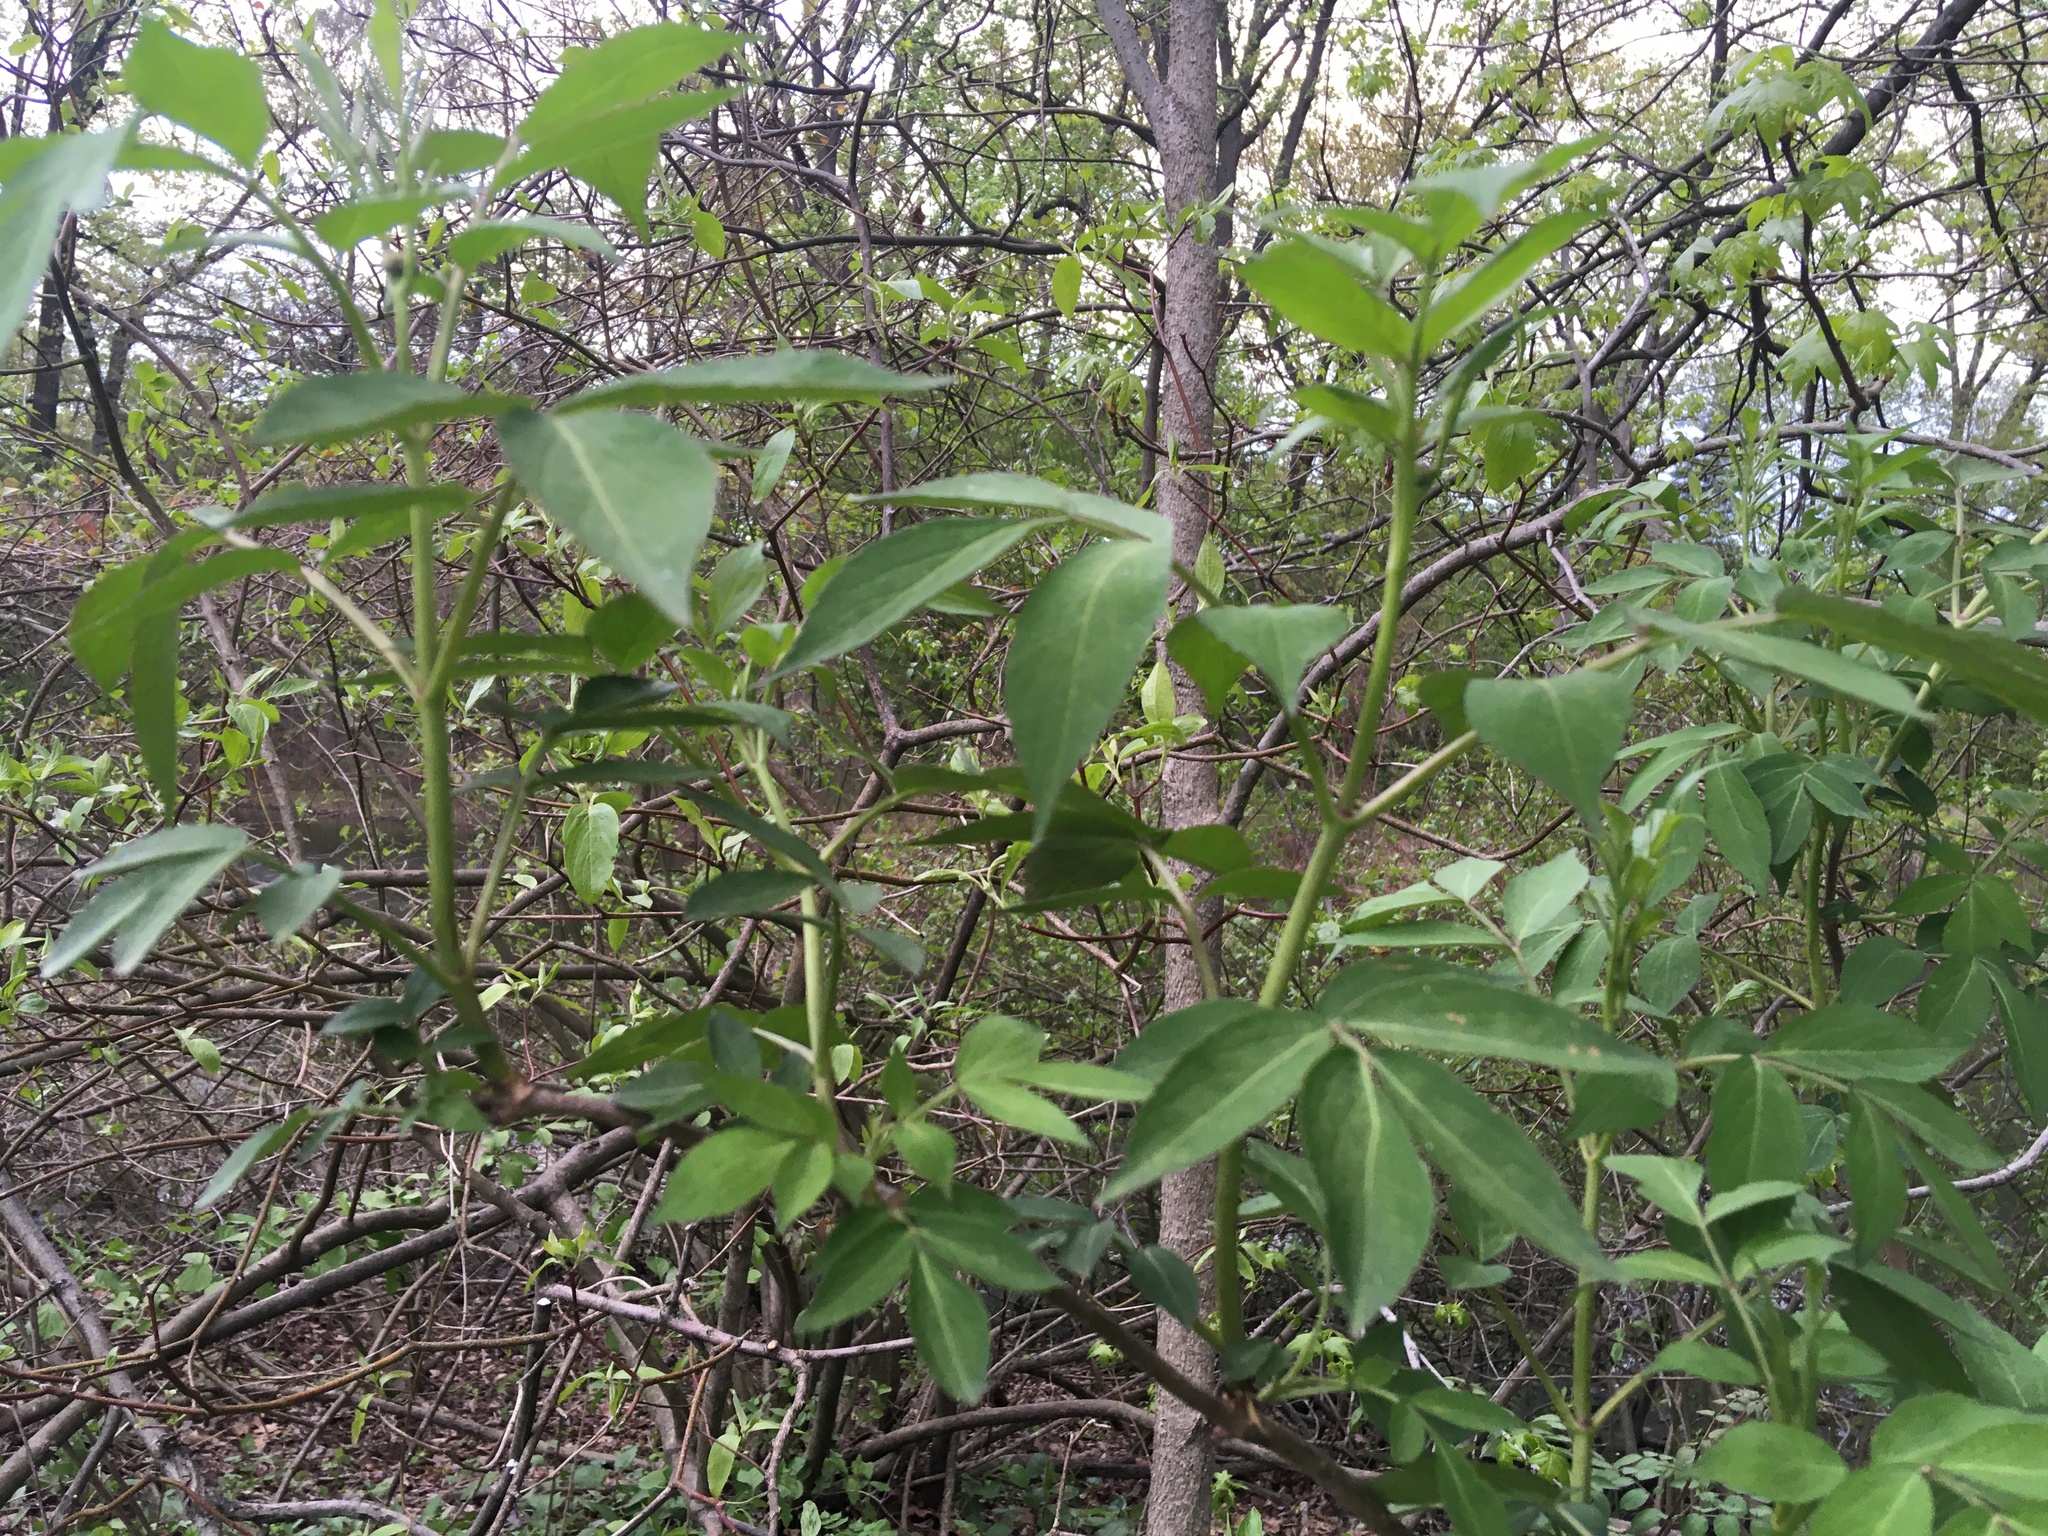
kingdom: Plantae
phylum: Tracheophyta
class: Magnoliopsida
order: Dipsacales
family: Viburnaceae
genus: Sambucus
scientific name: Sambucus canadensis
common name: American elder
